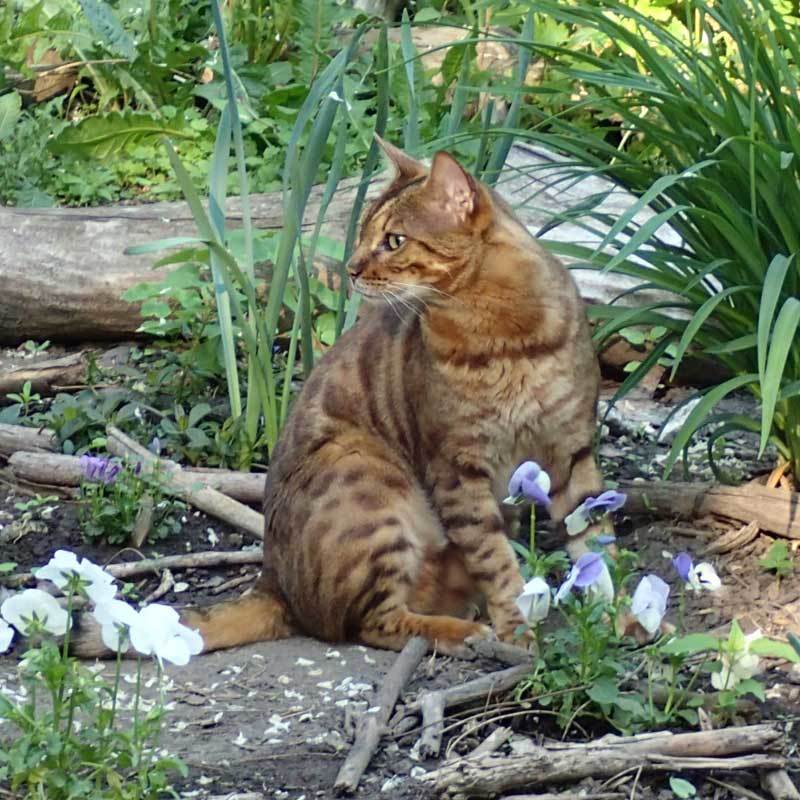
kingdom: Animalia
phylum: Chordata
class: Mammalia
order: Carnivora
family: Felidae
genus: Felis
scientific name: Felis catus
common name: Domestic cat
